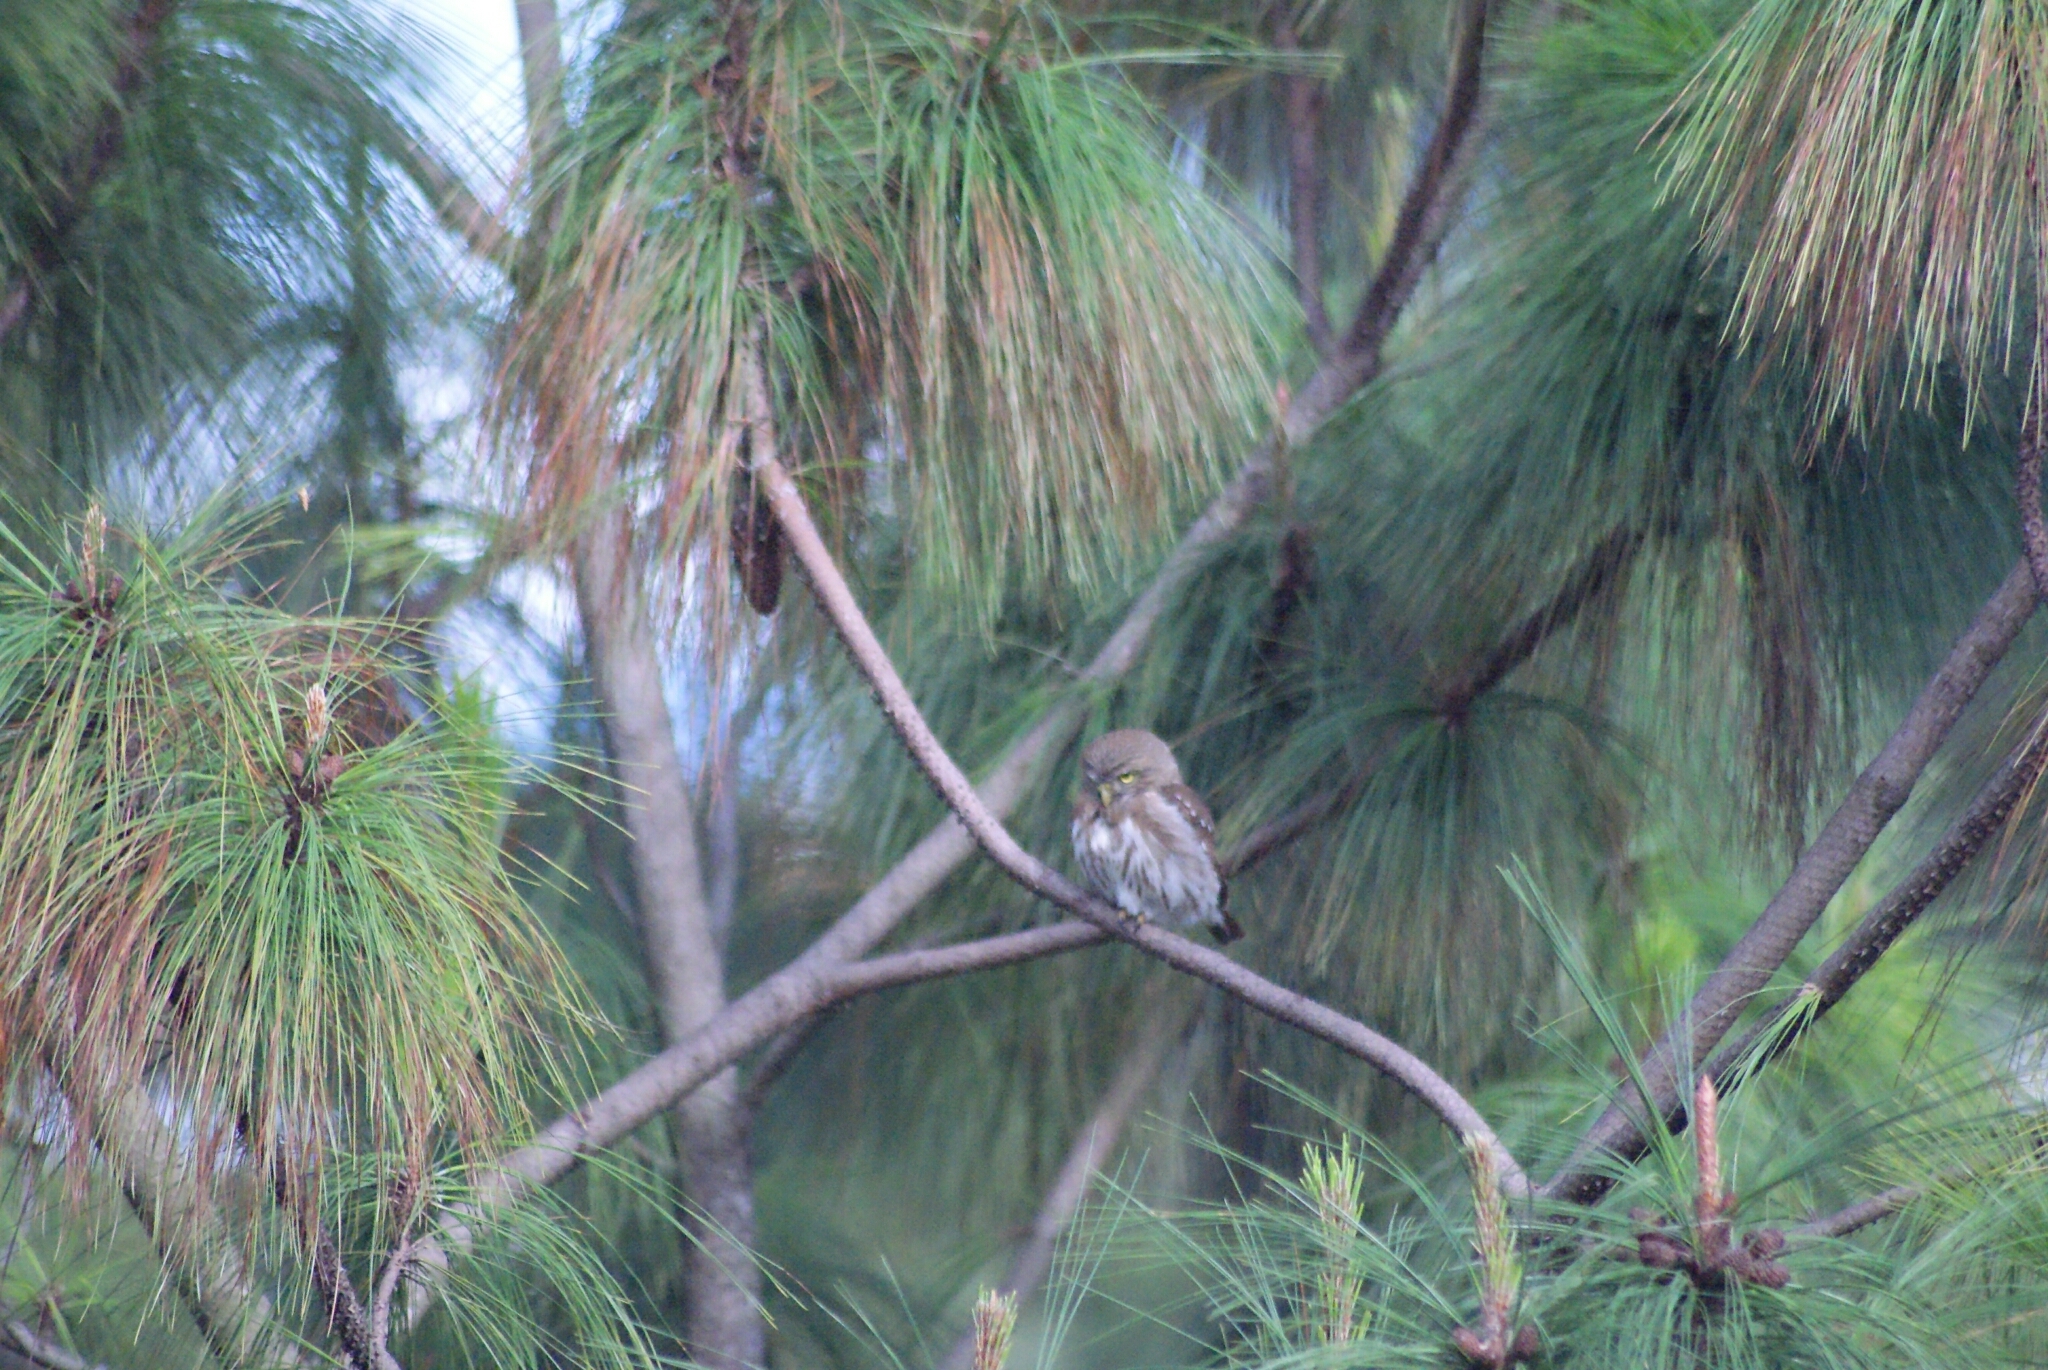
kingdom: Animalia
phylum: Chordata
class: Aves
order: Strigiformes
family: Strigidae
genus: Glaucidium
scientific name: Glaucidium brasilianum
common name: Ferruginous pygmy-owl
